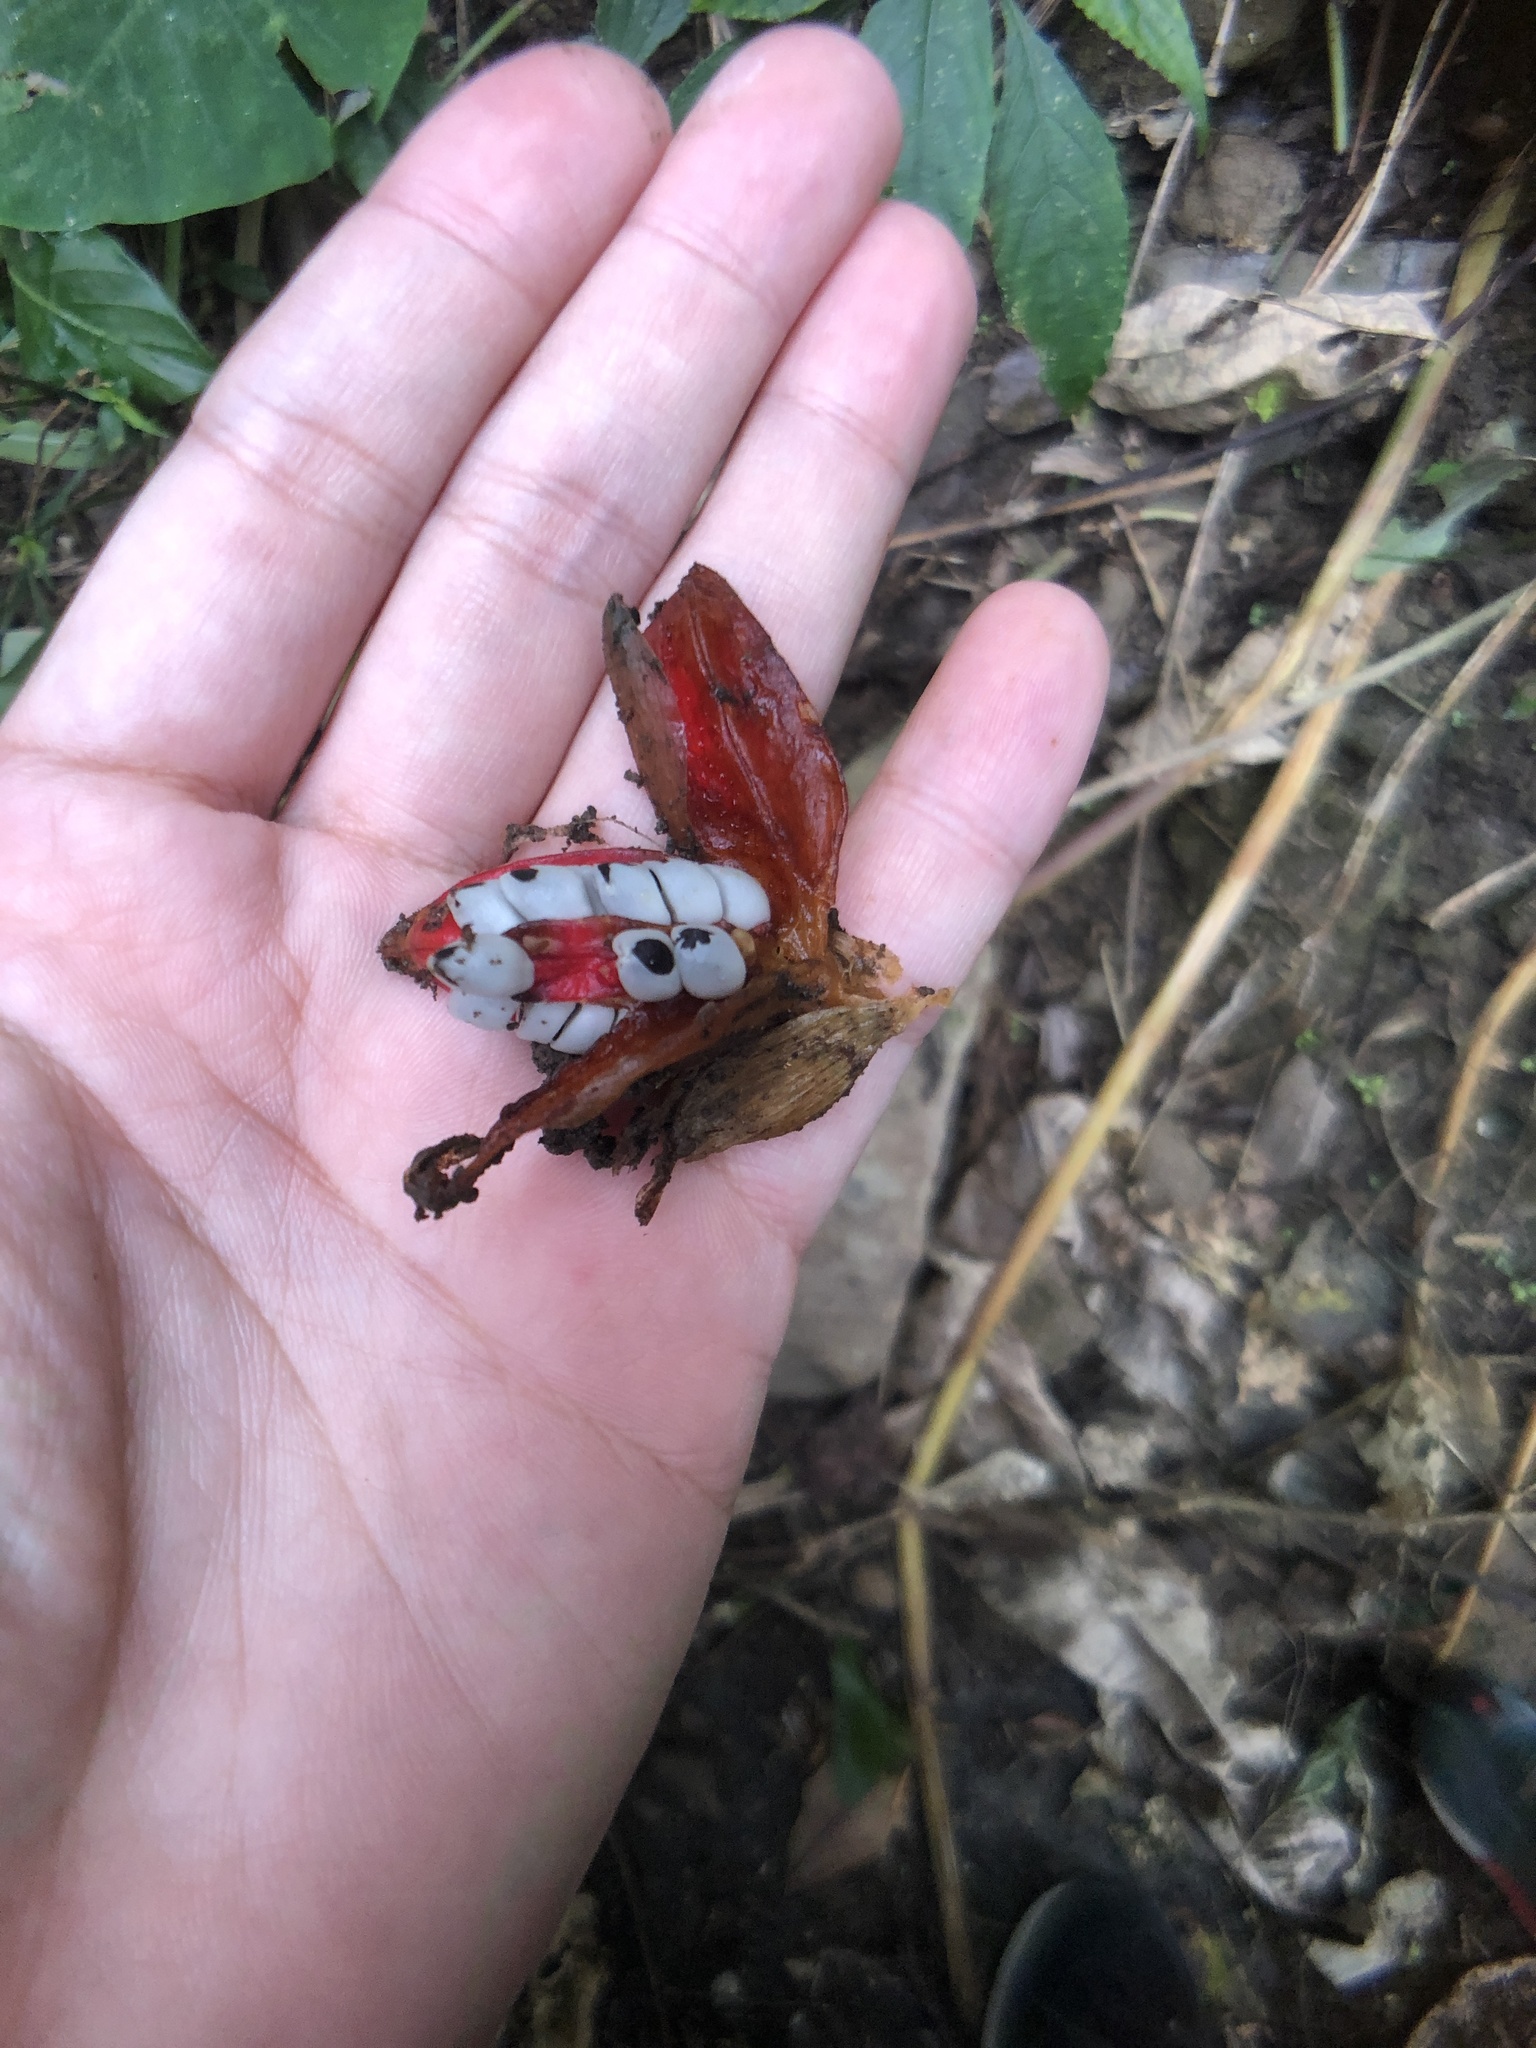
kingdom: Plantae
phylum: Tracheophyta
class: Liliopsida
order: Zingiberales
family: Zingiberaceae
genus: Zingiber
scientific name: Zingiber kawagoii
